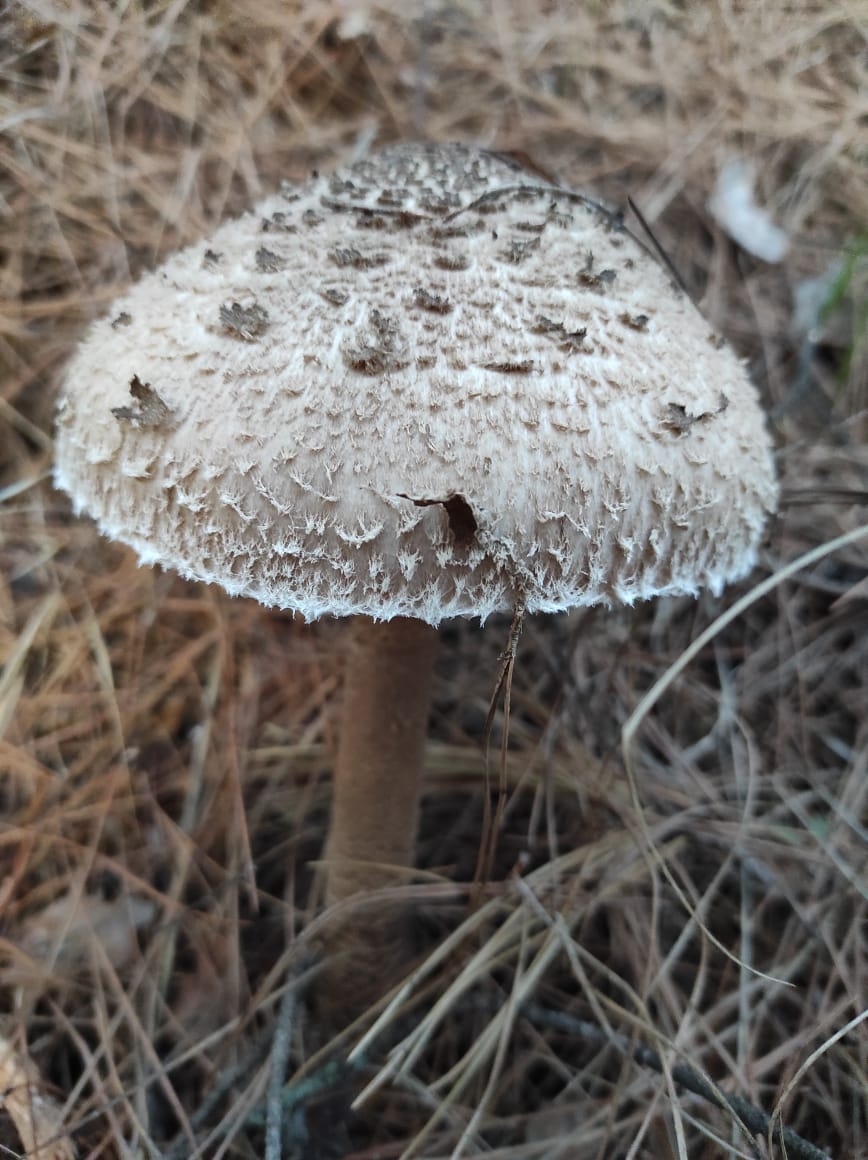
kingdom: Fungi
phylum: Basidiomycota
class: Agaricomycetes
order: Agaricales
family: Agaricaceae
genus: Macrolepiota
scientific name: Macrolepiota procera
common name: Parasol
